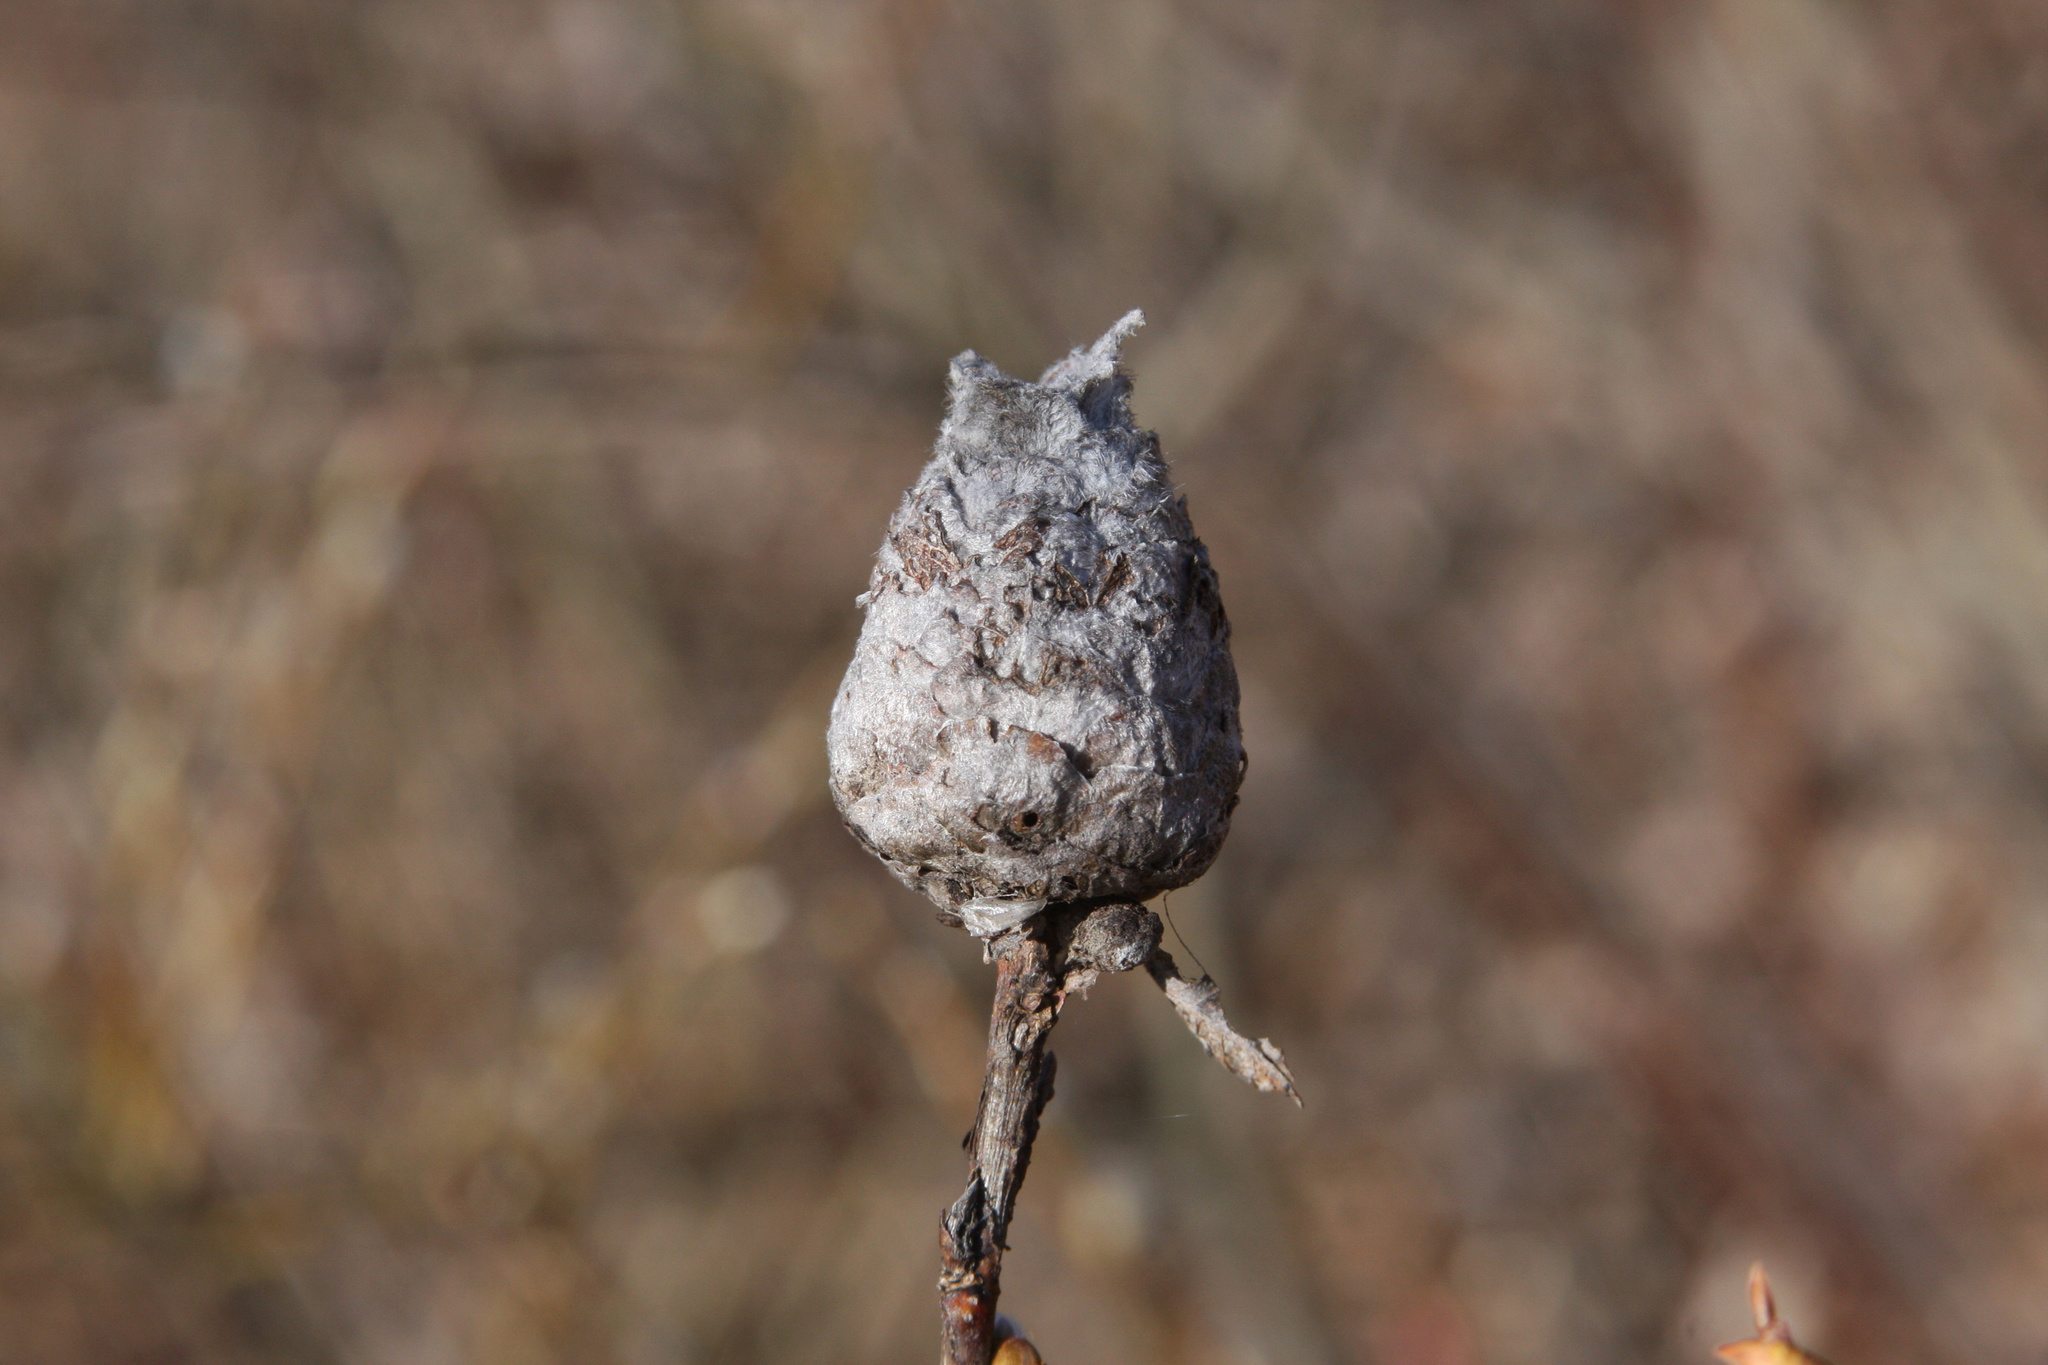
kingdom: Animalia
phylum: Arthropoda
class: Insecta
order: Diptera
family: Cecidomyiidae
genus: Rabdophaga
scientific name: Rabdophaga strobiloides
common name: Willow pinecone gall midge
